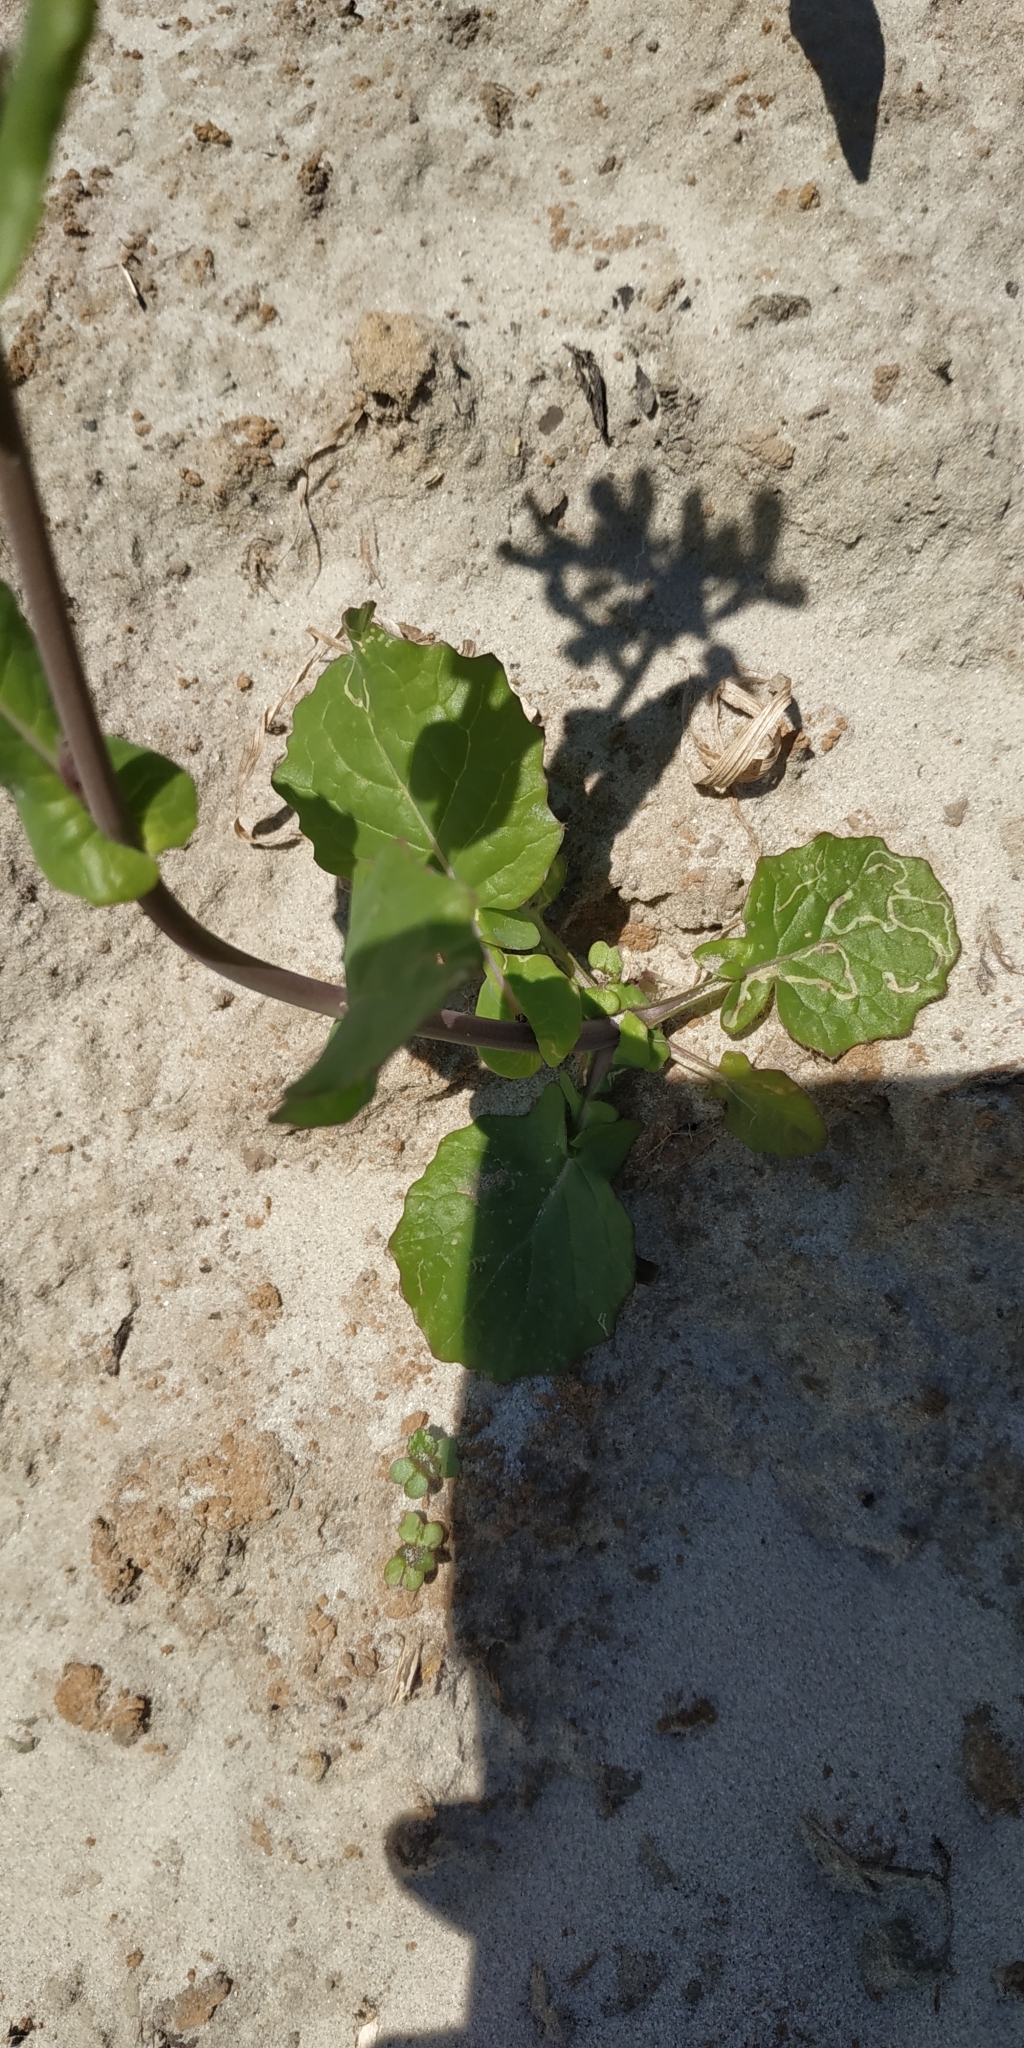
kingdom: Plantae
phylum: Tracheophyta
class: Magnoliopsida
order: Brassicales
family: Brassicaceae
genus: Brassica
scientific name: Brassica rapa
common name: Field mustard
